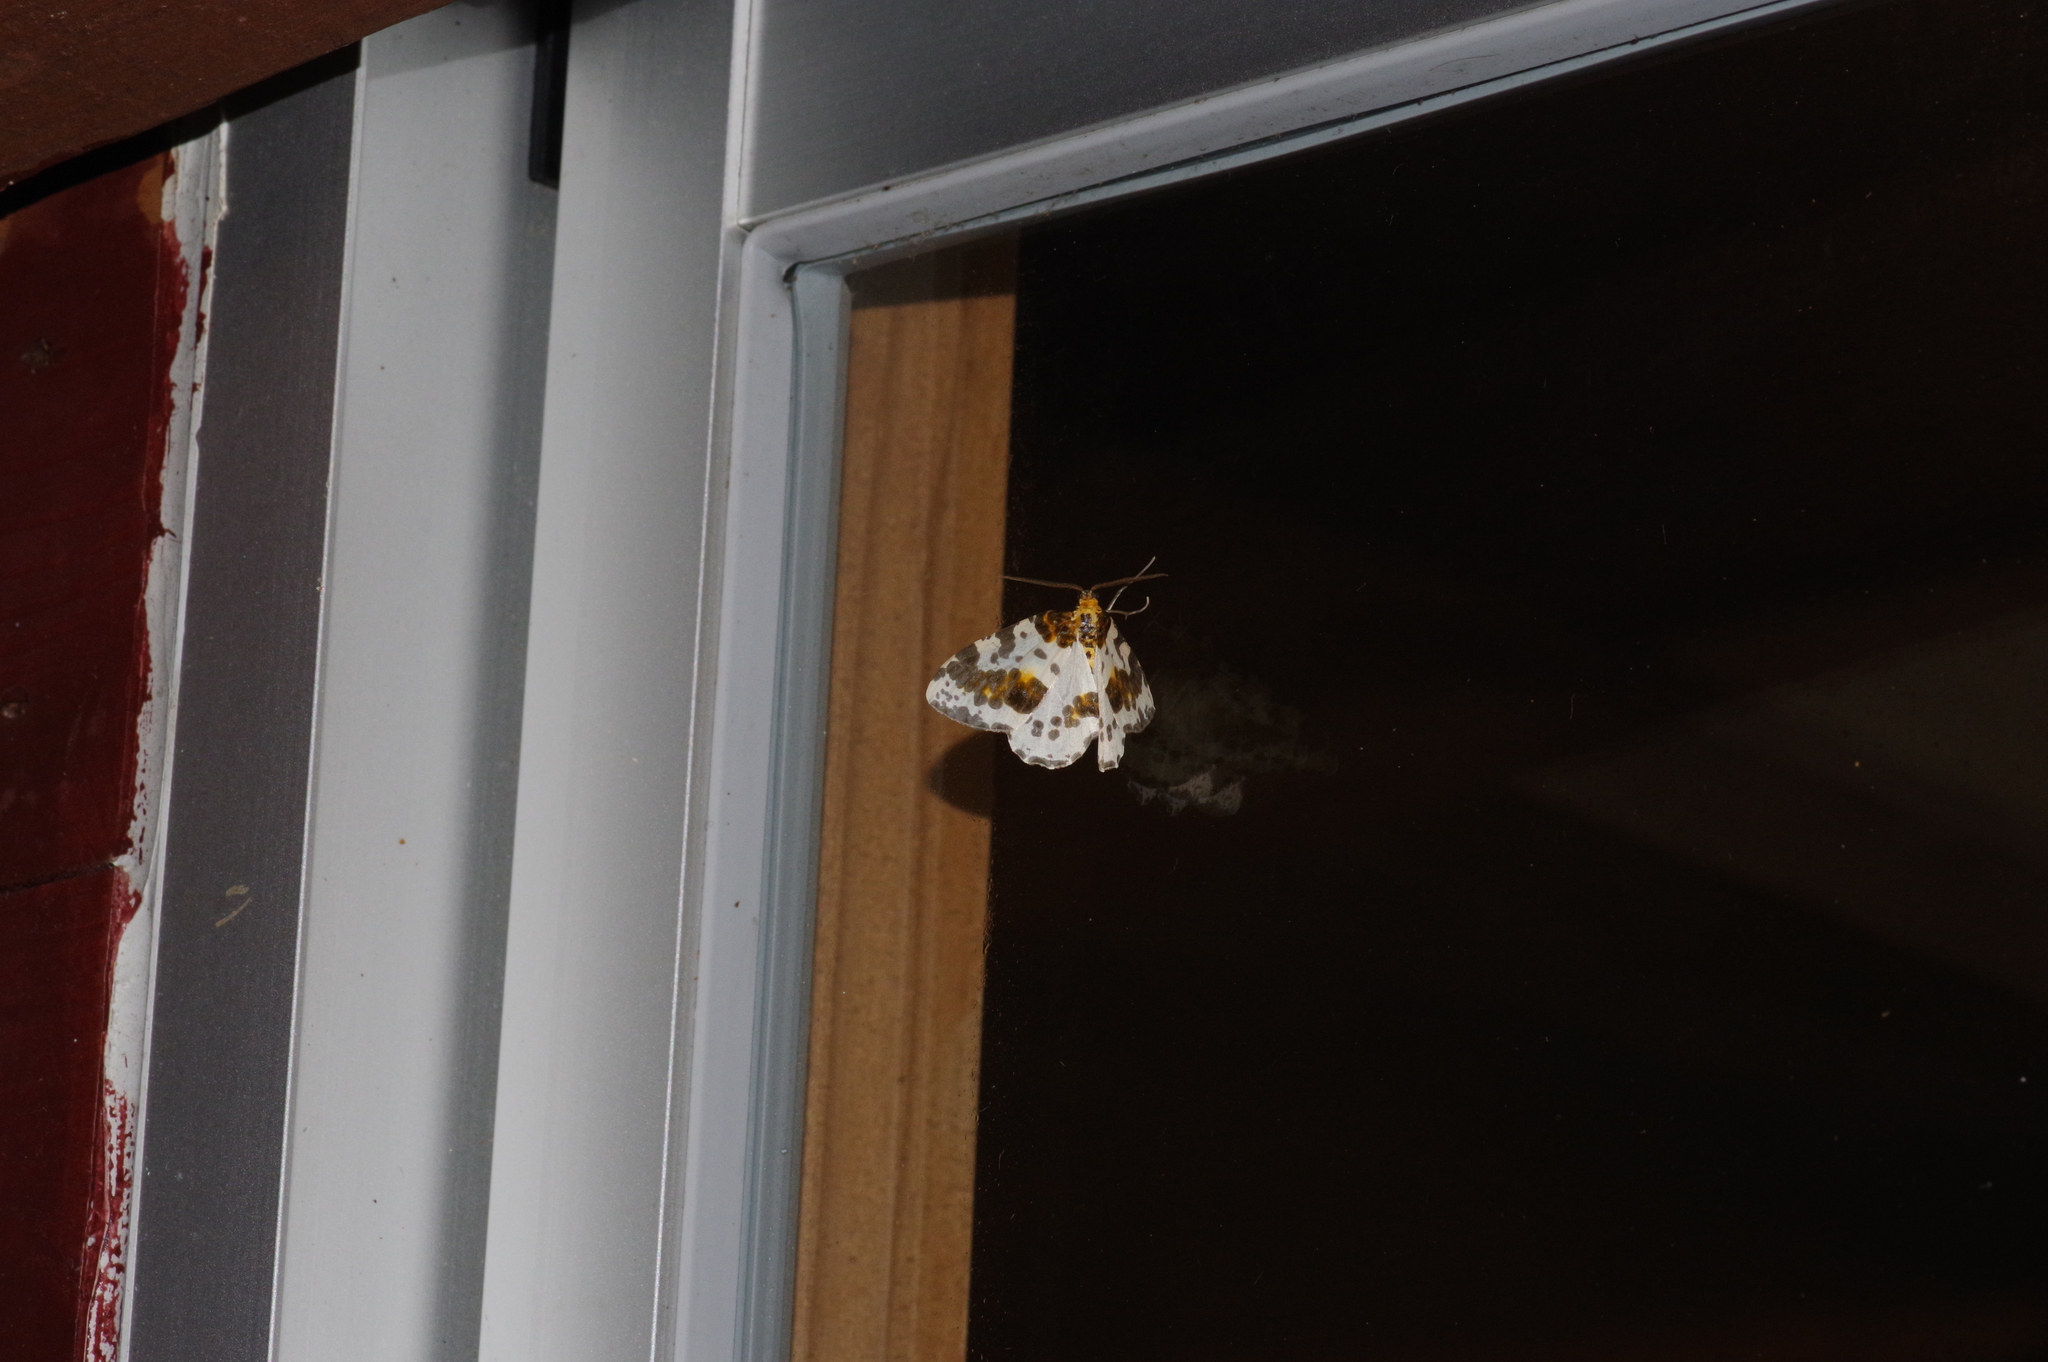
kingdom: Animalia
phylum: Arthropoda
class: Insecta
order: Lepidoptera
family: Geometridae
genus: Abraxas
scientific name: Abraxas miranda
